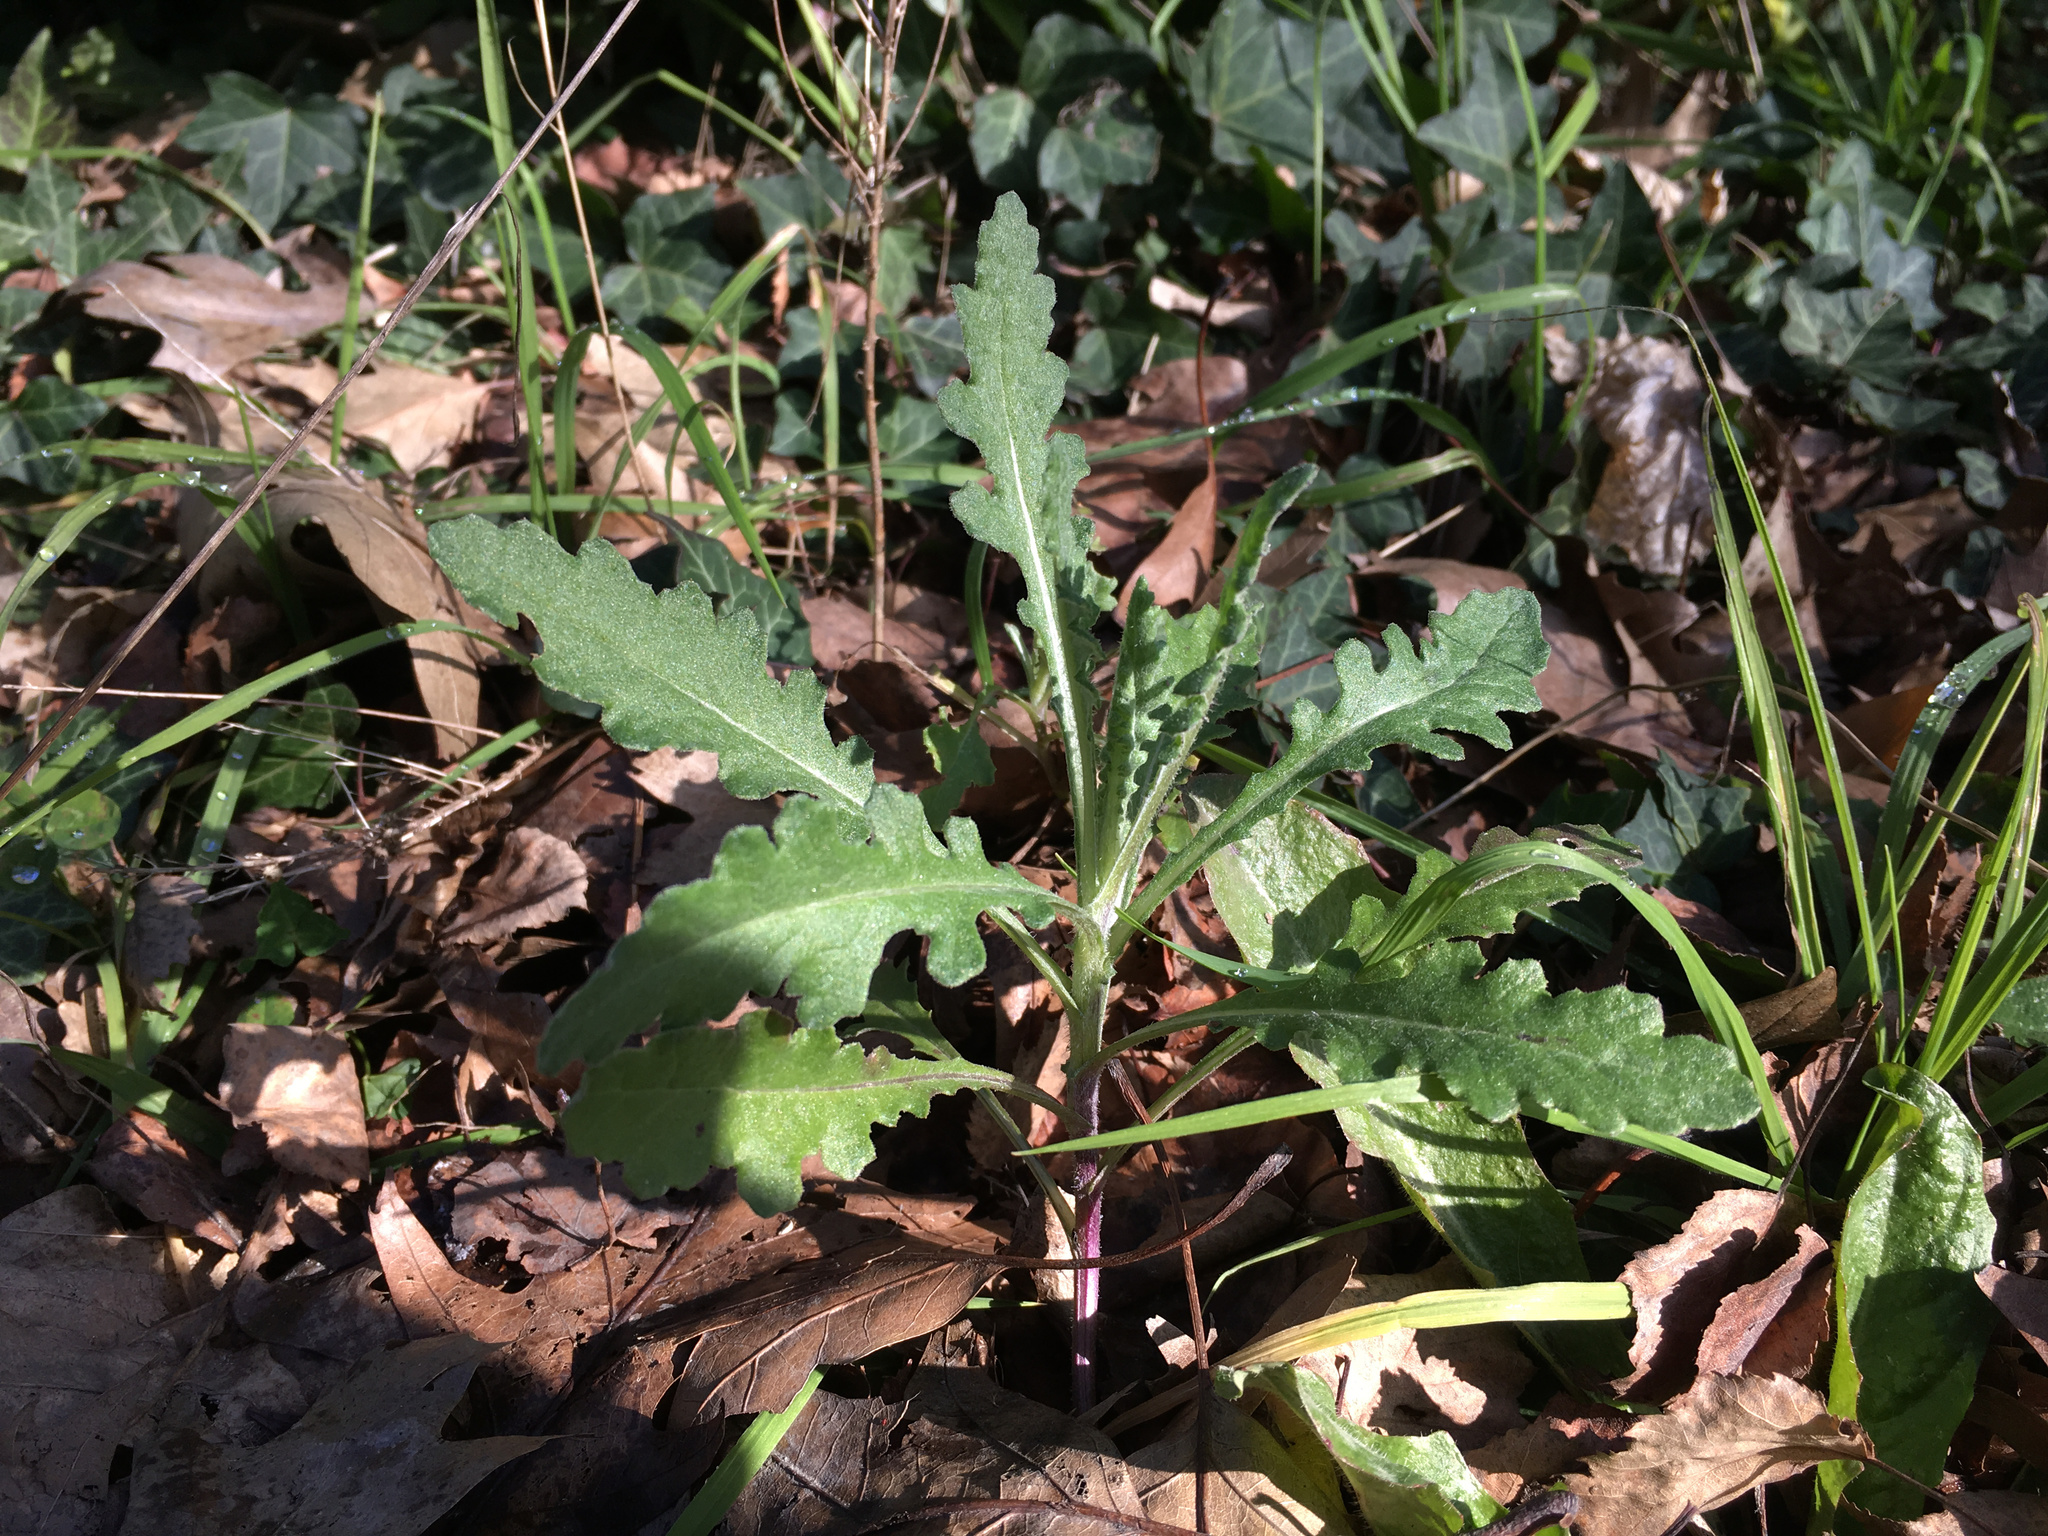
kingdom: Plantae
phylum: Tracheophyta
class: Magnoliopsida
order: Asterales
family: Asteraceae
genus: Senecio
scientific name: Senecio glomeratus
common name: Cutleaf burnweed
